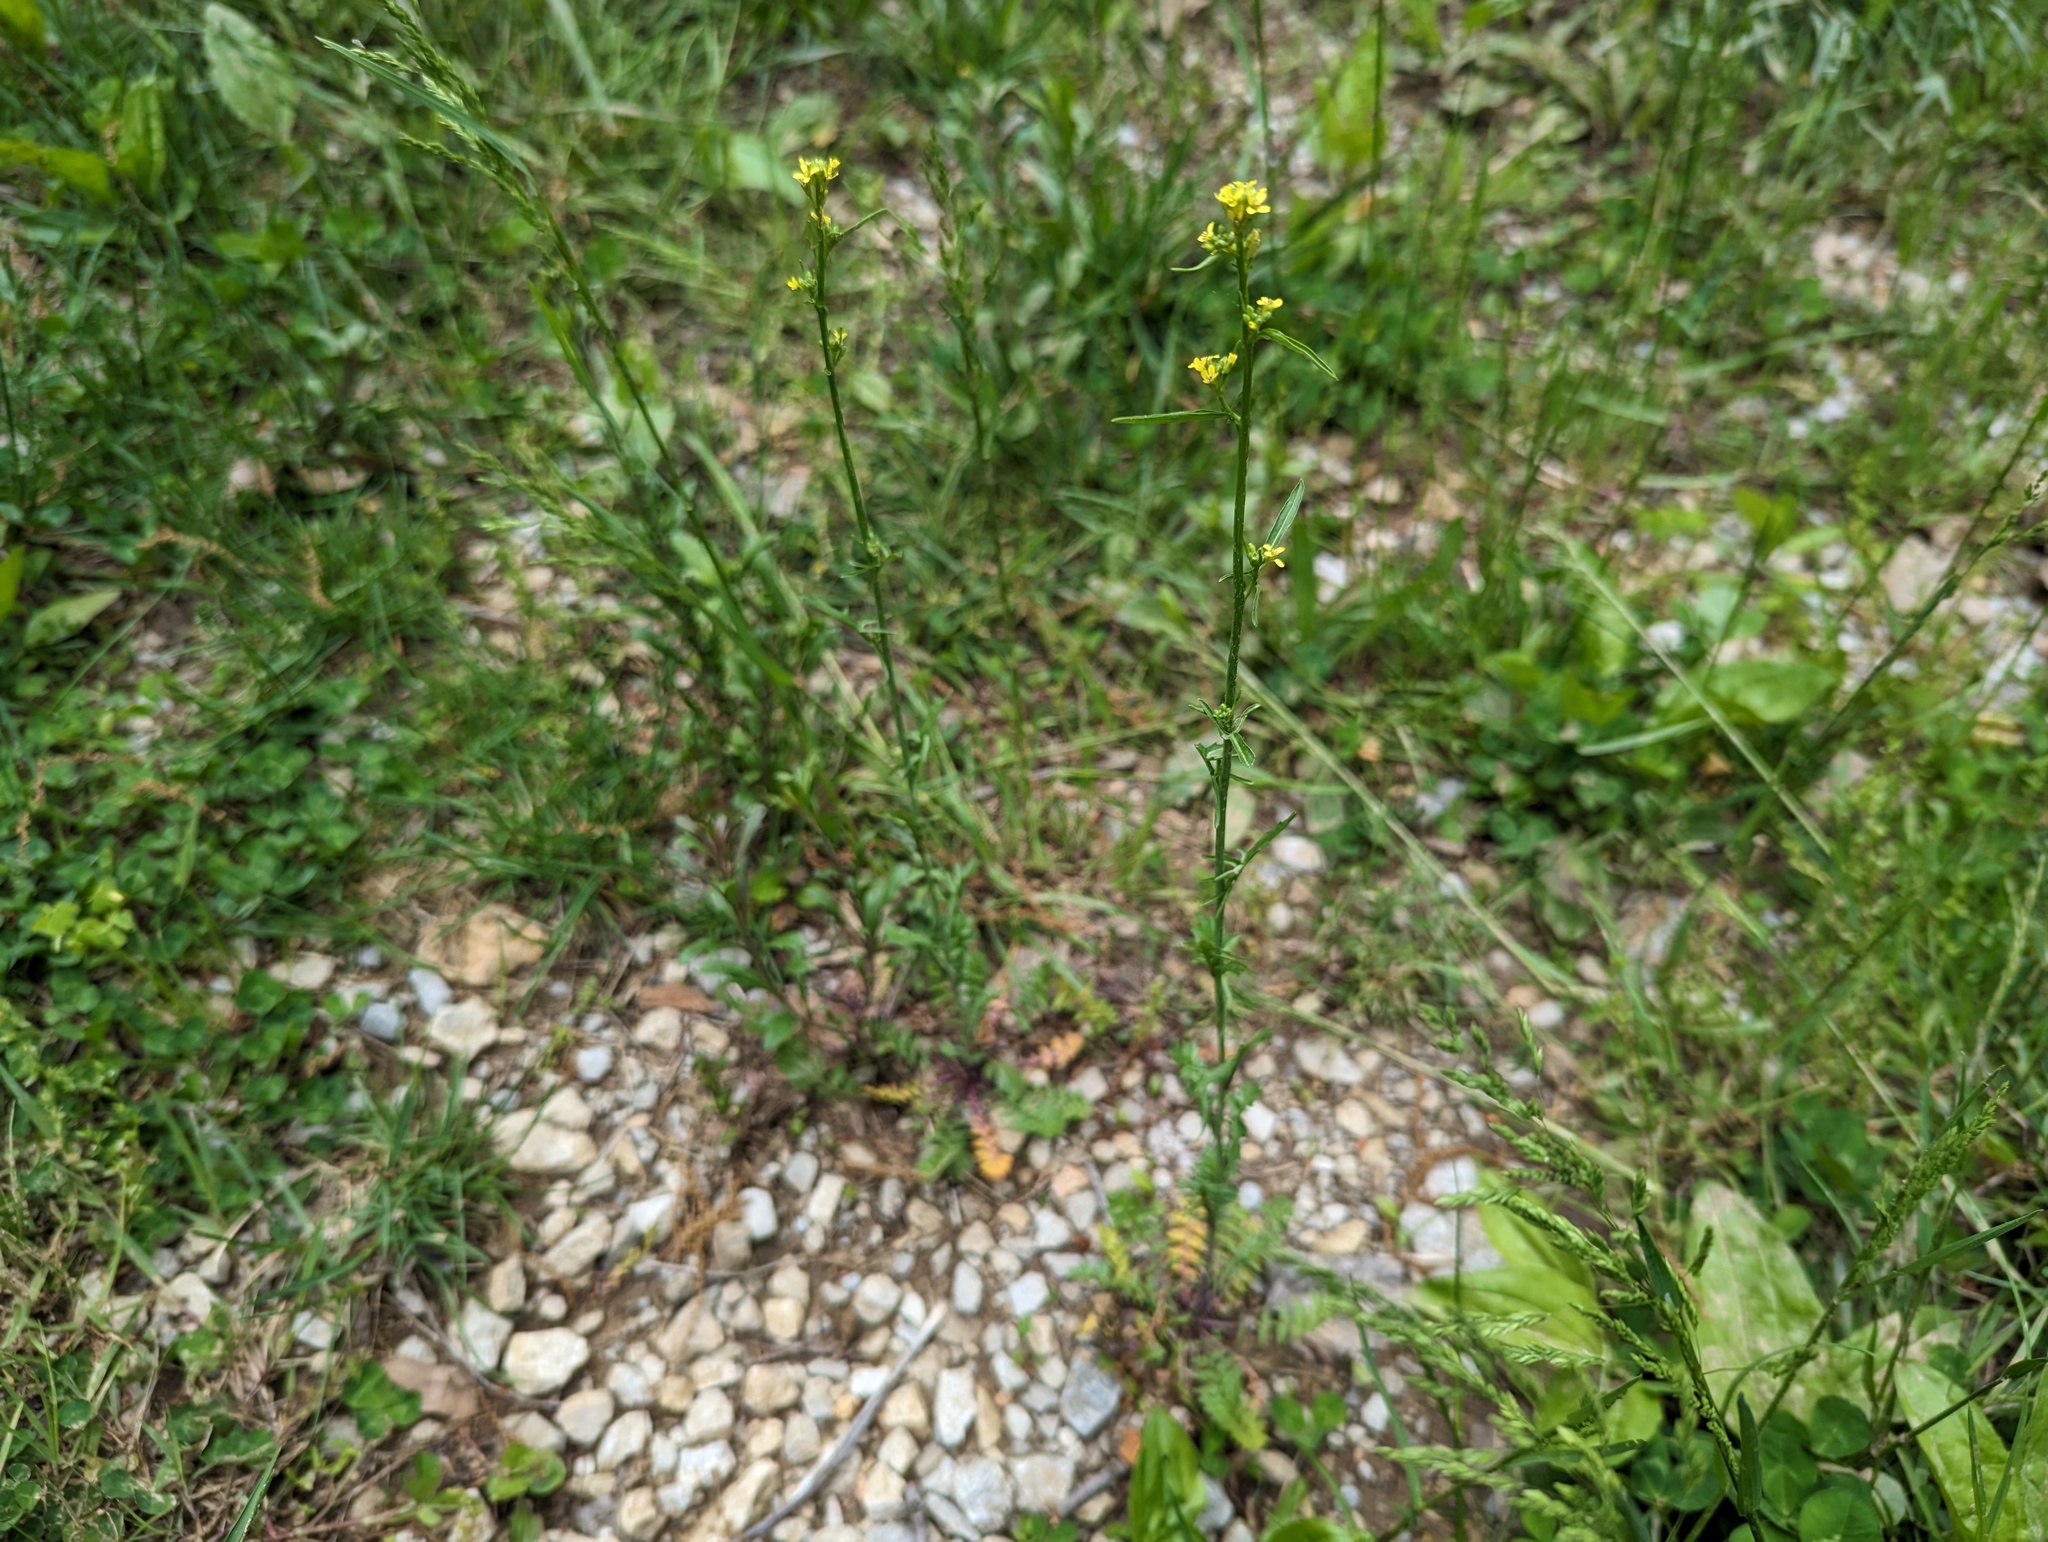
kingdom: Plantae
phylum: Tracheophyta
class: Magnoliopsida
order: Brassicales
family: Brassicaceae
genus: Sisymbrium
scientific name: Sisymbrium altissimum
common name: Tall rocket
